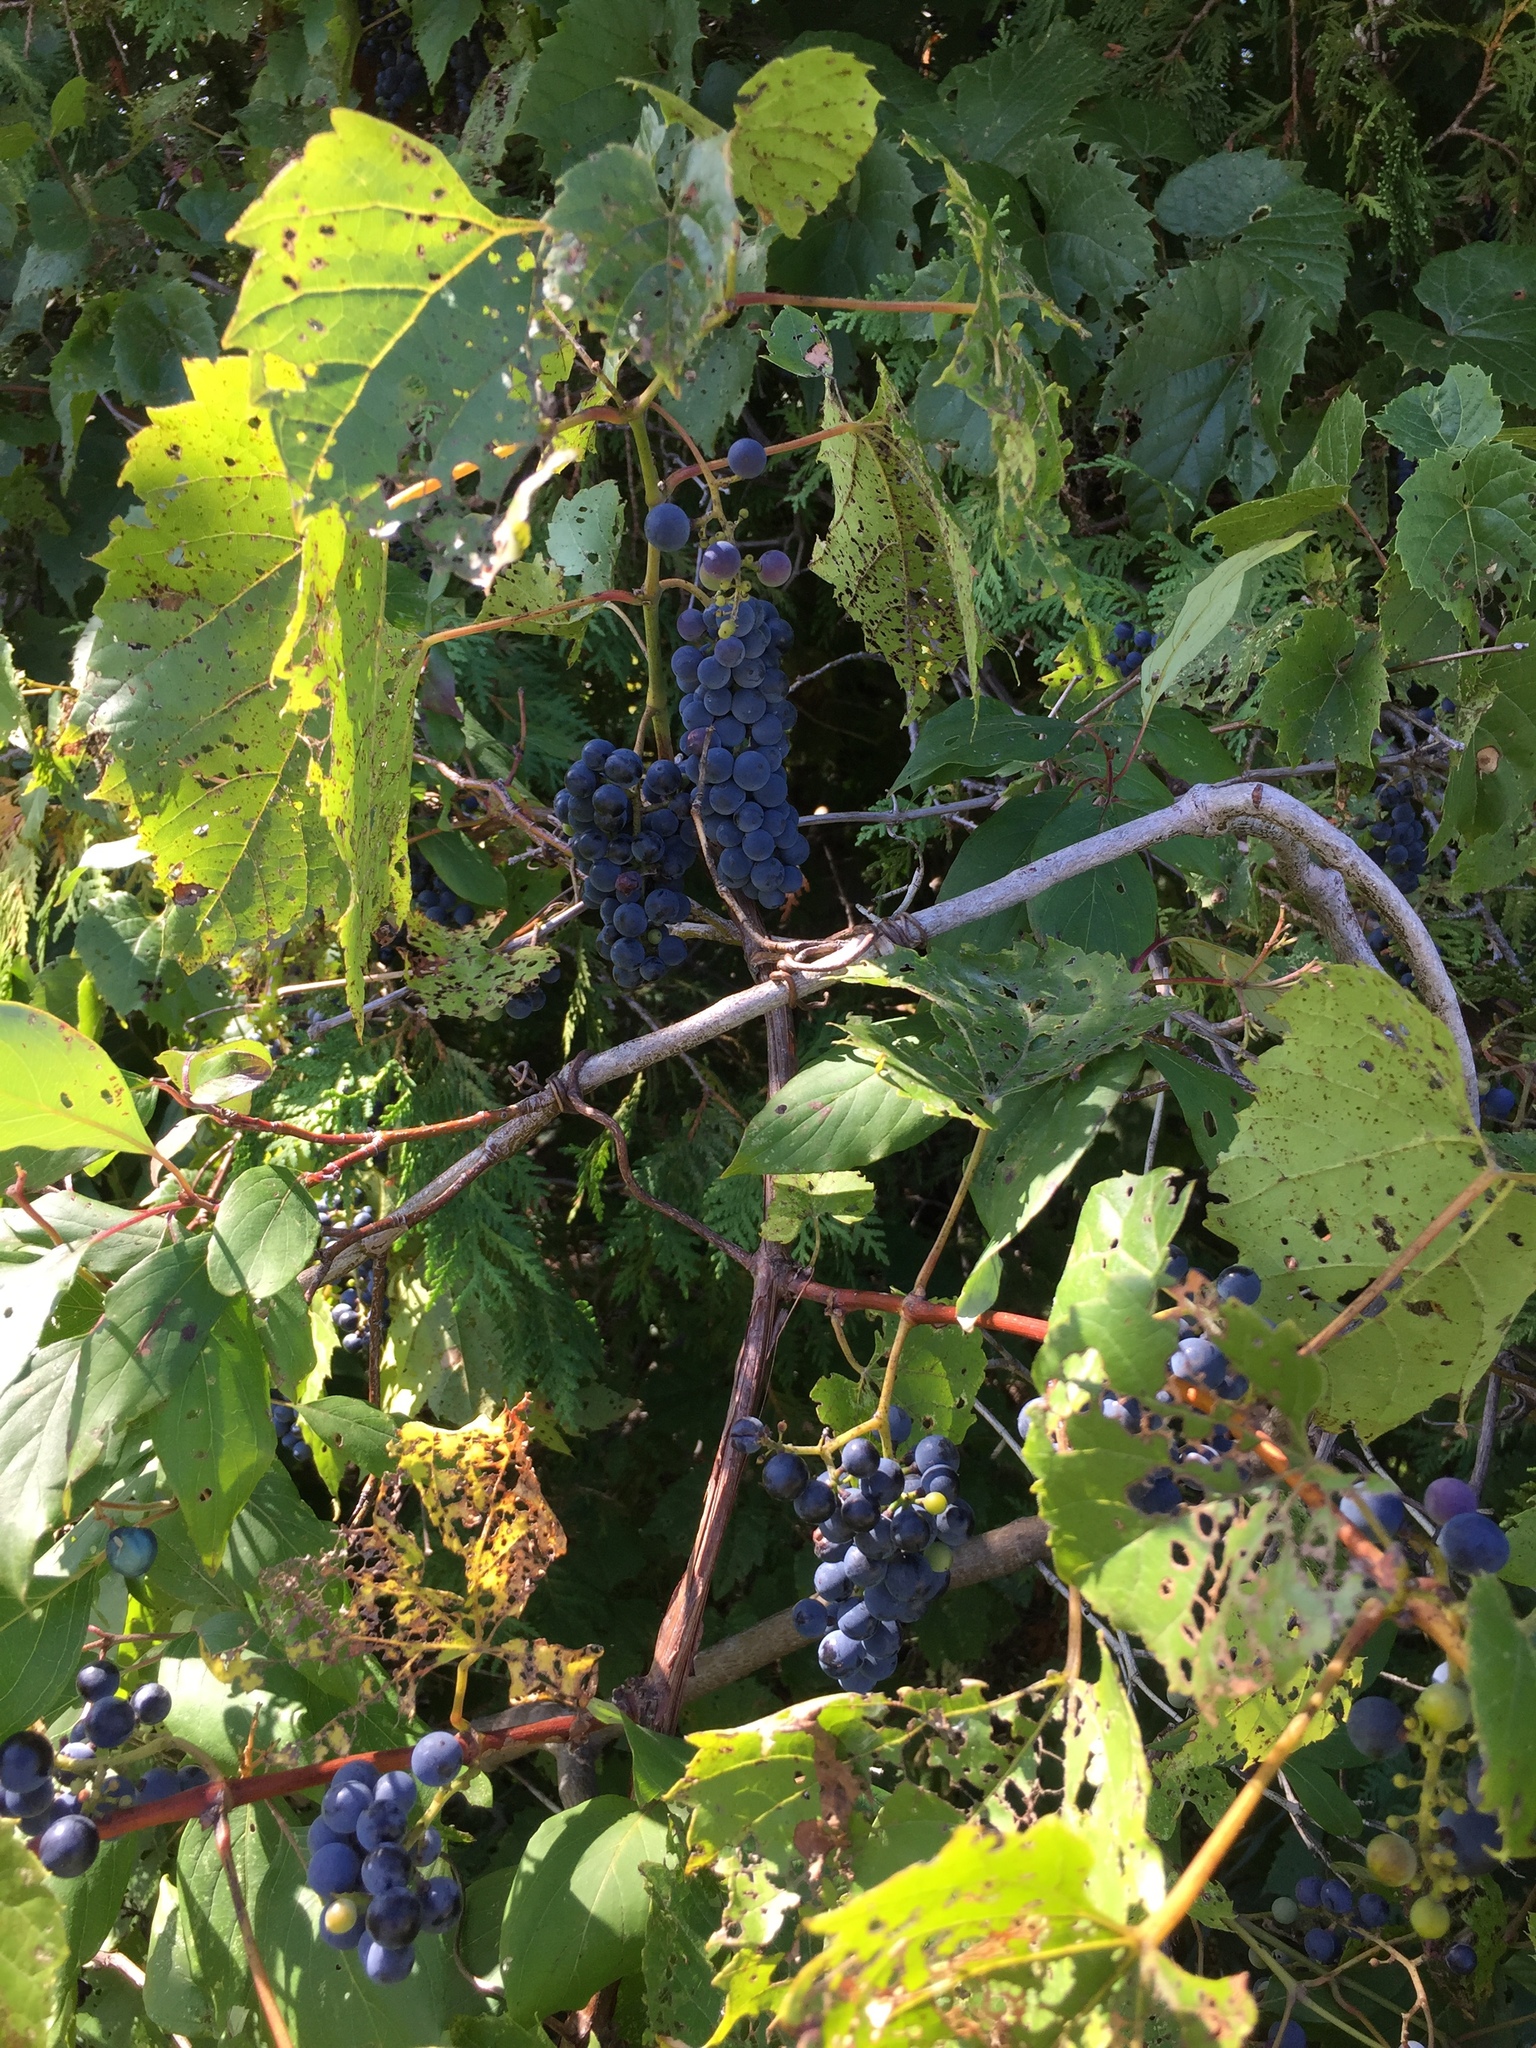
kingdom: Plantae
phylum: Tracheophyta
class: Magnoliopsida
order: Vitales
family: Vitaceae
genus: Vitis
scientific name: Vitis riparia
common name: Frost grape
